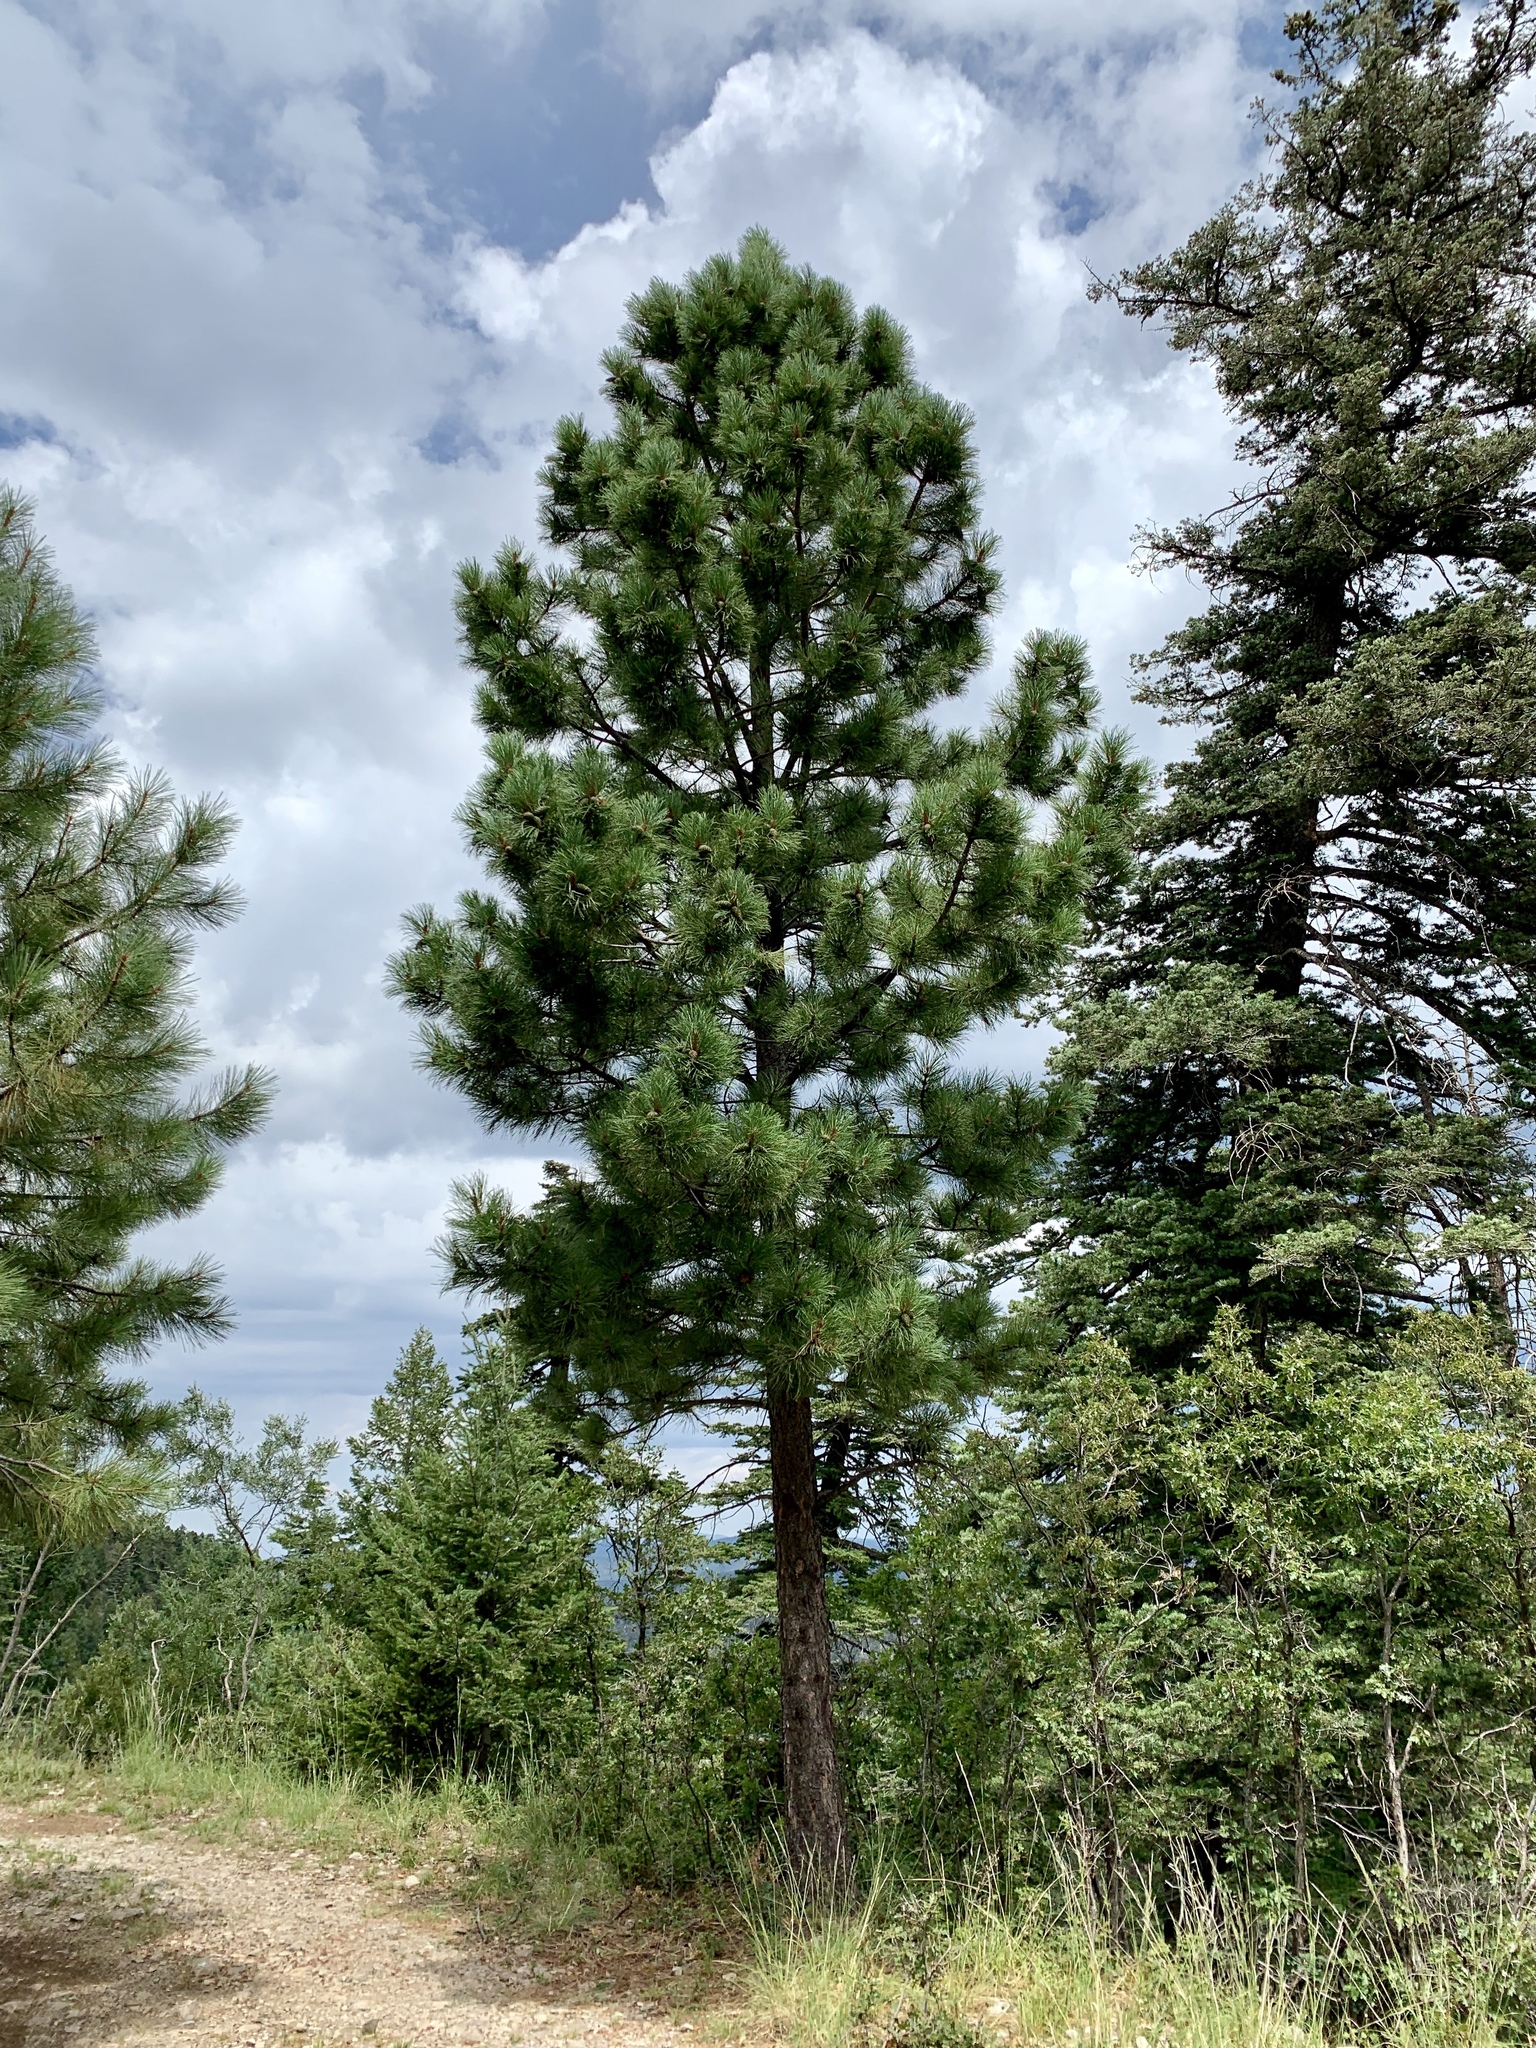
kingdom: Plantae
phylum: Tracheophyta
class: Pinopsida
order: Pinales
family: Pinaceae
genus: Pinus
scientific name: Pinus ponderosa
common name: Western yellow-pine
